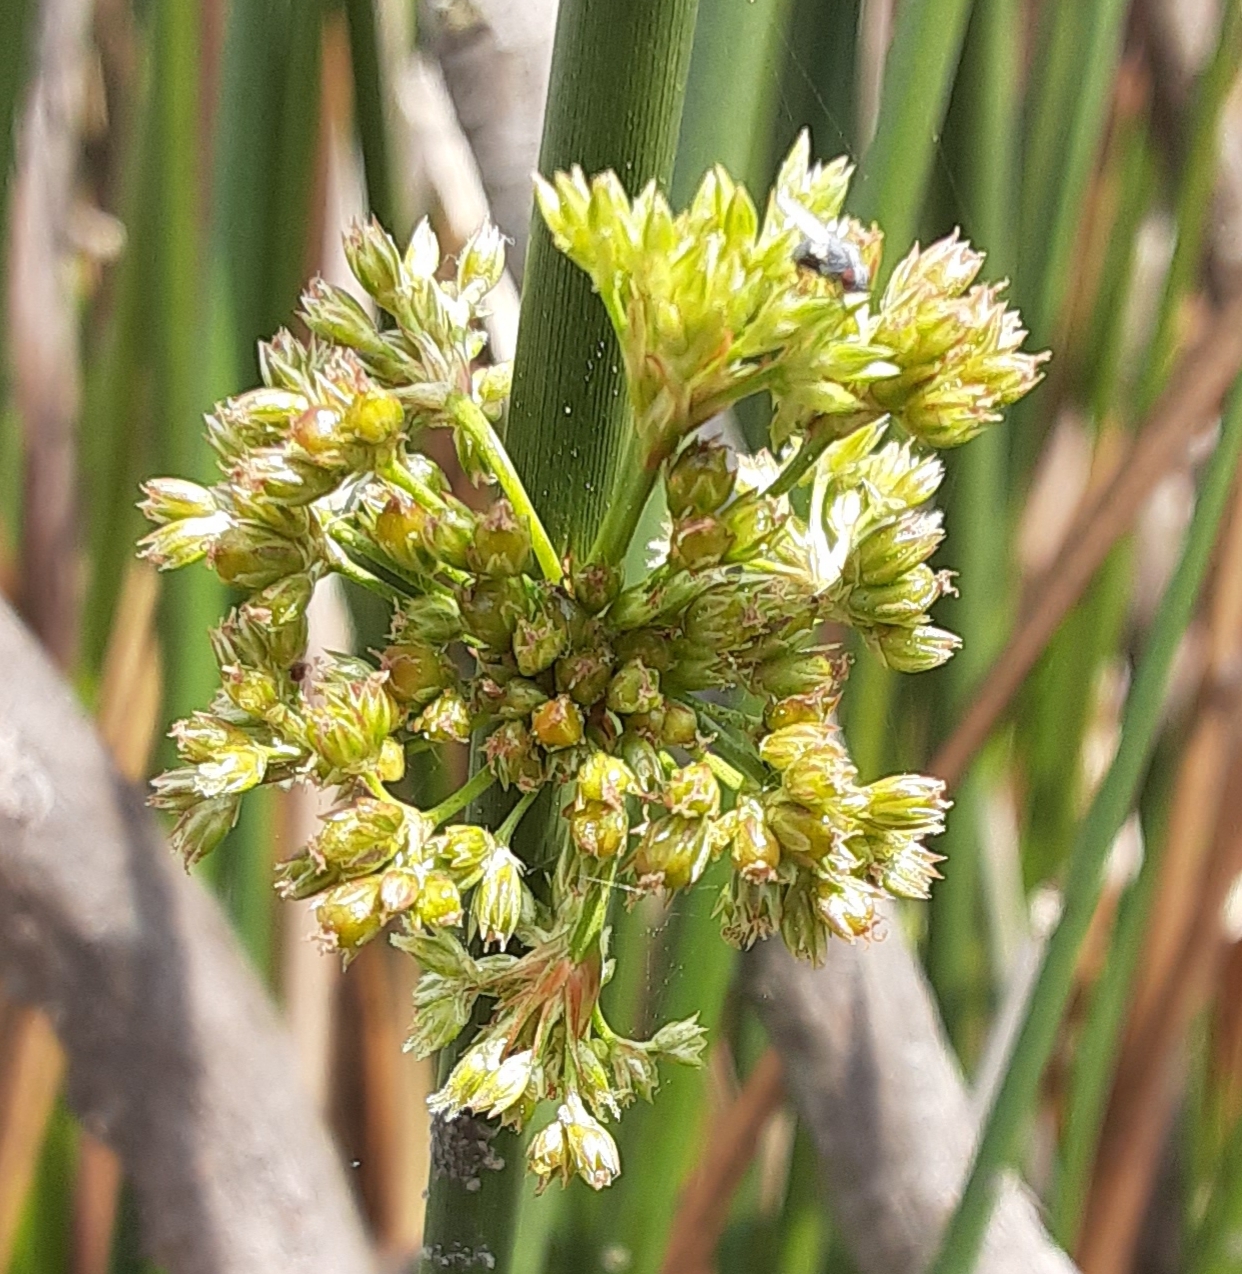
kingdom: Plantae
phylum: Tracheophyta
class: Liliopsida
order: Poales
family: Juncaceae
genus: Juncus
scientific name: Juncus effusus
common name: Soft rush
